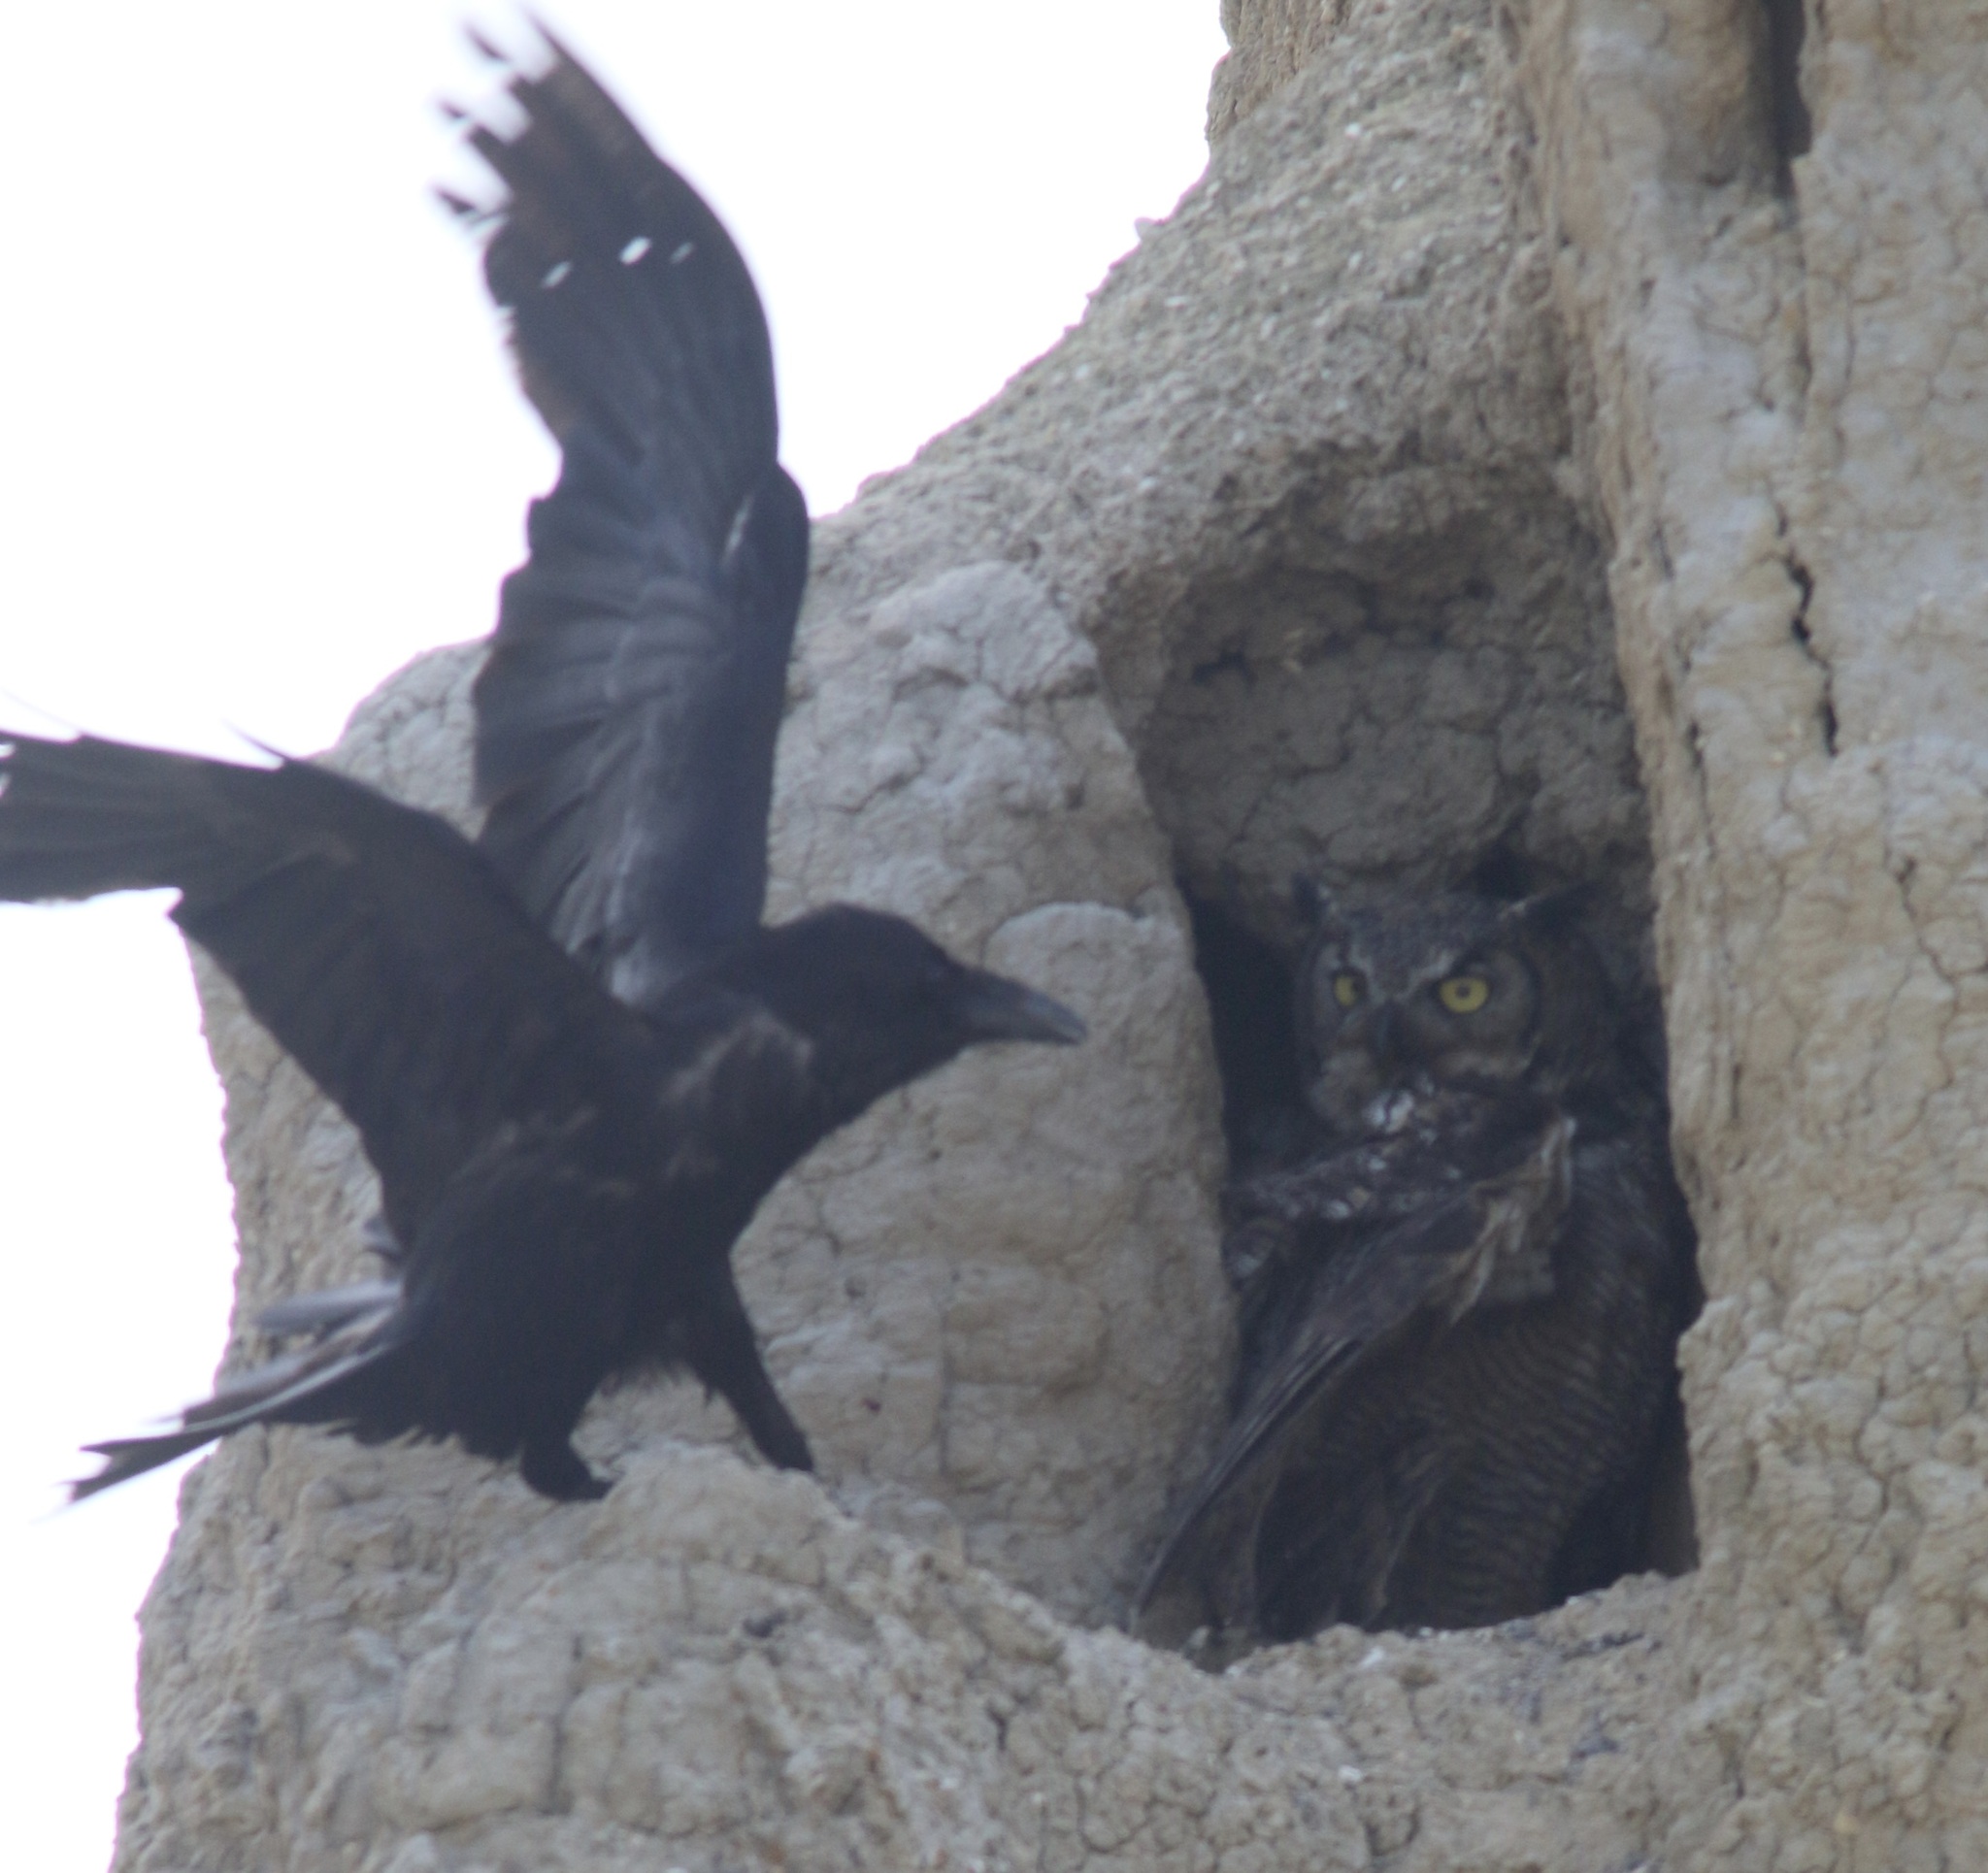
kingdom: Animalia
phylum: Chordata
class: Aves
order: Passeriformes
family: Corvidae
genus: Corvus
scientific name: Corvus corax
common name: Common raven
